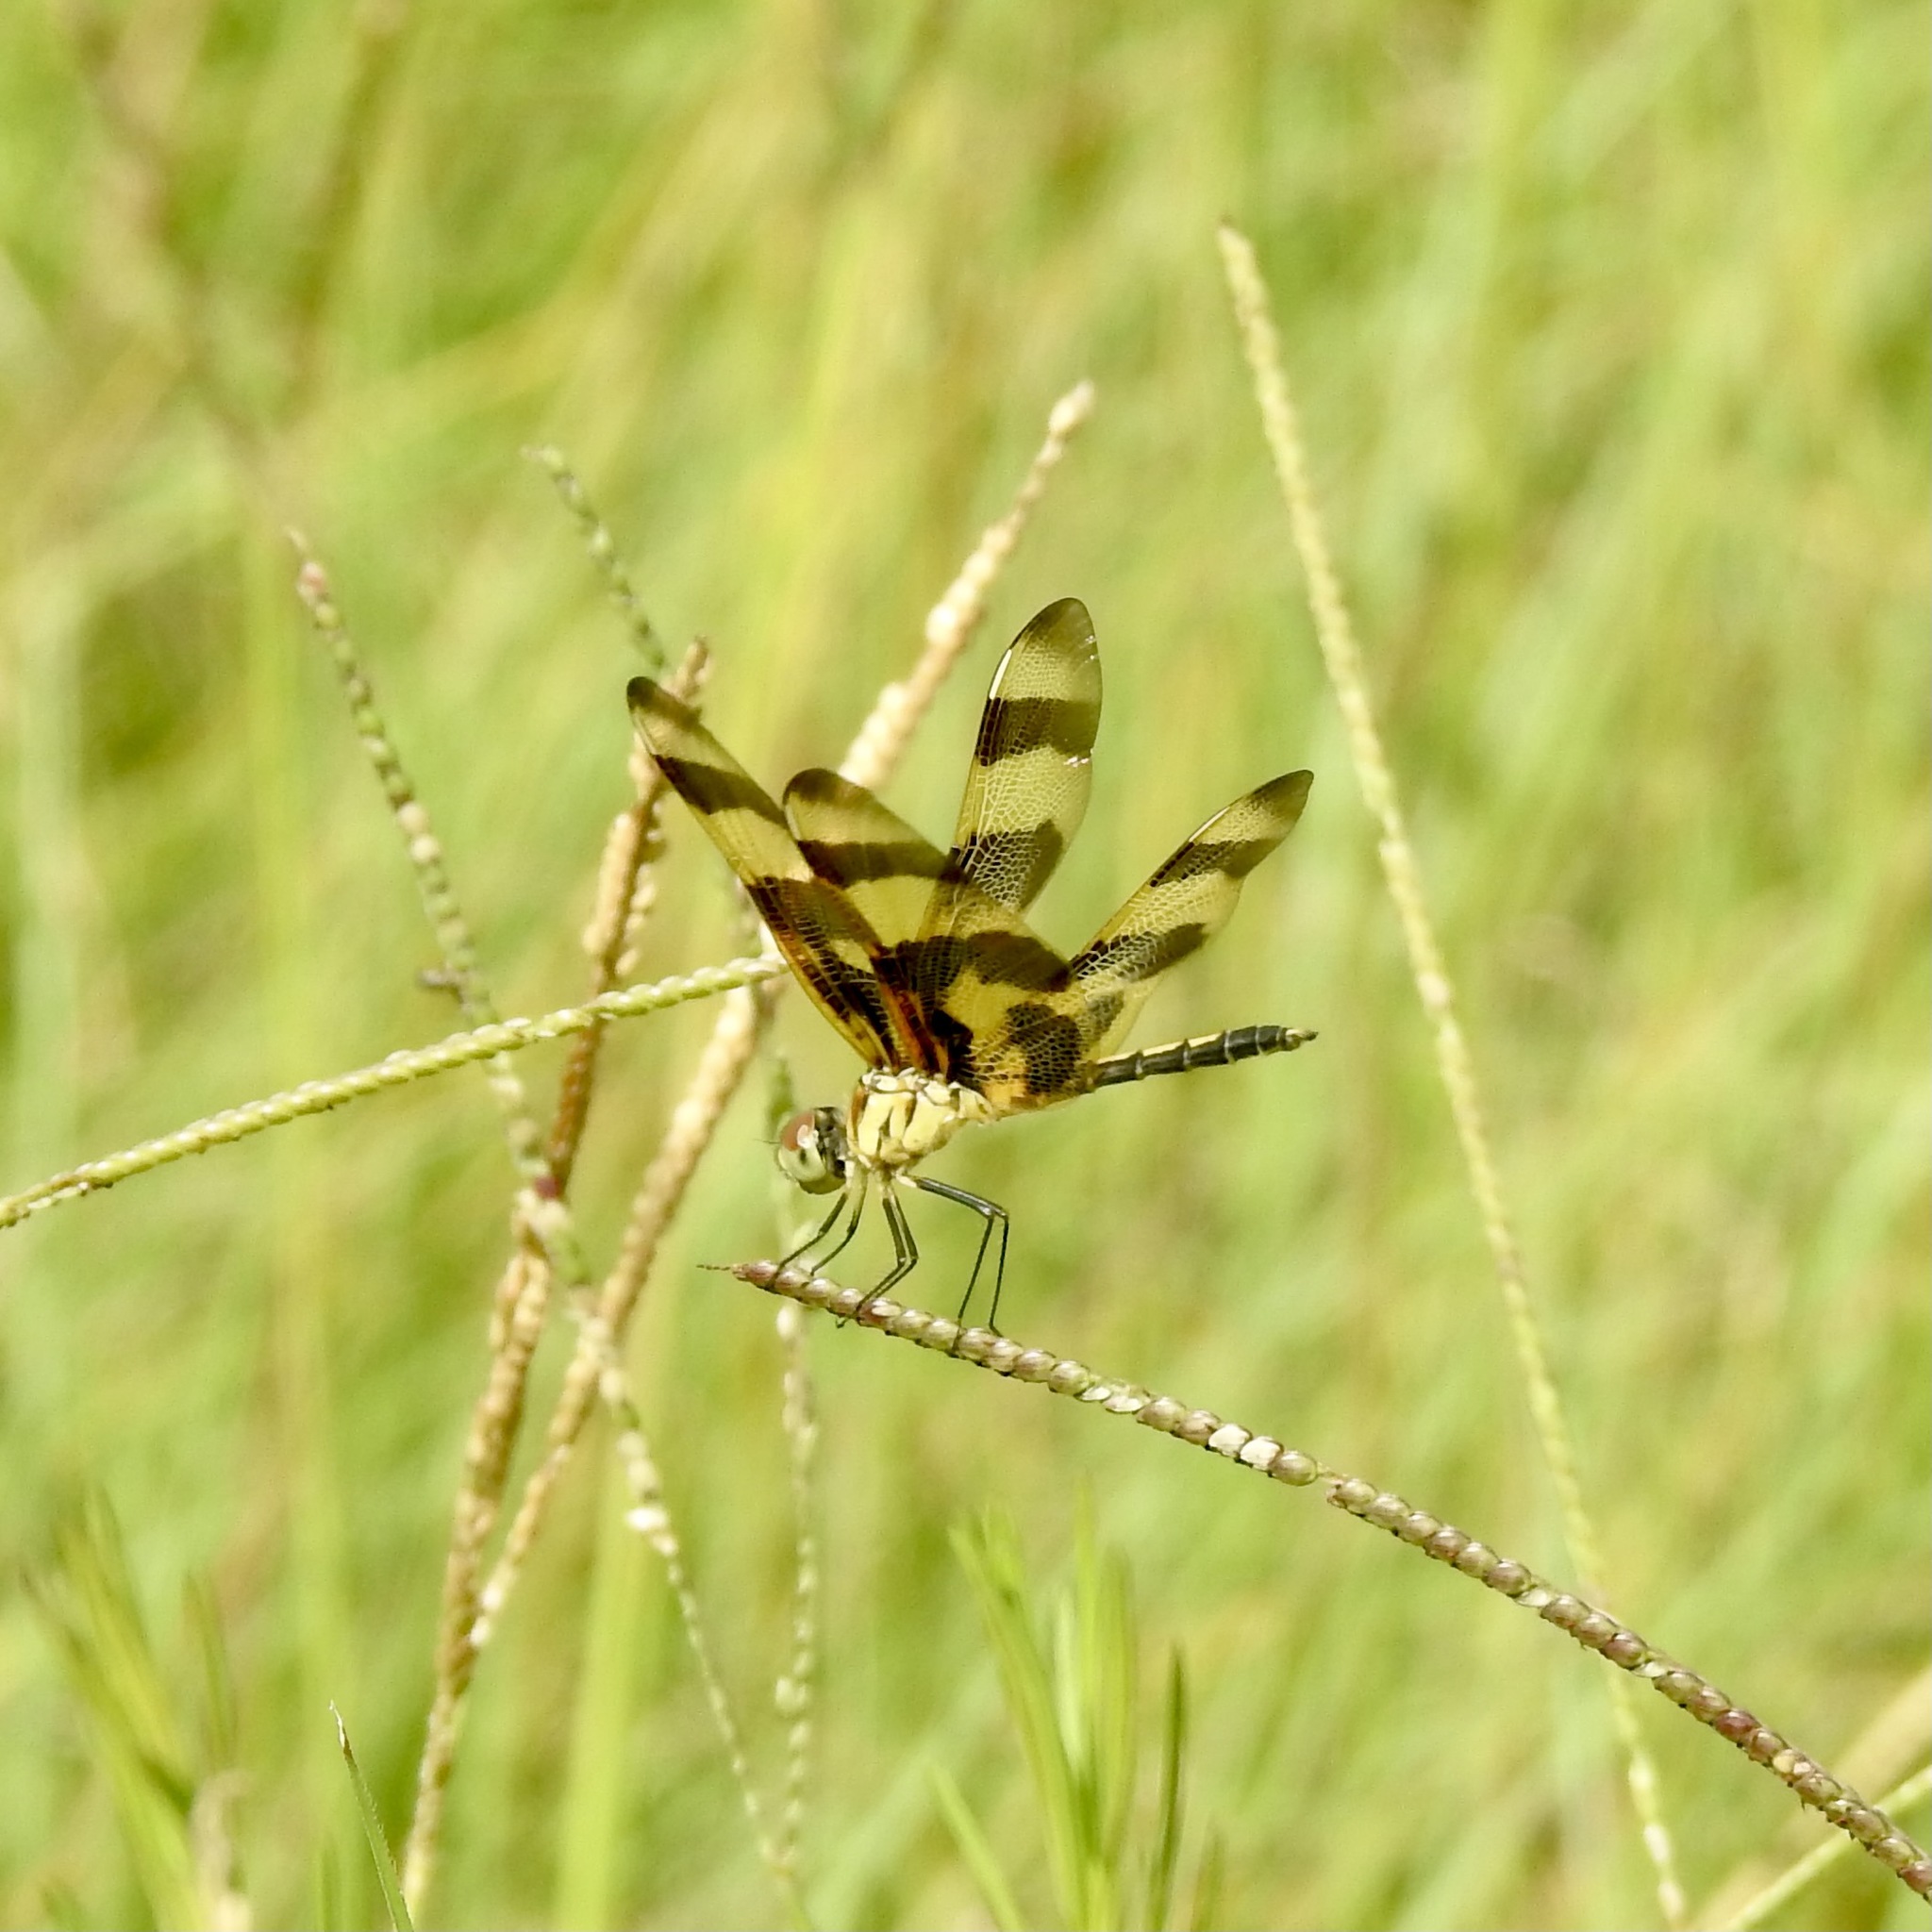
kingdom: Animalia
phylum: Arthropoda
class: Insecta
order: Odonata
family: Libellulidae
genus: Celithemis
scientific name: Celithemis eponina
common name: Halloween pennant
